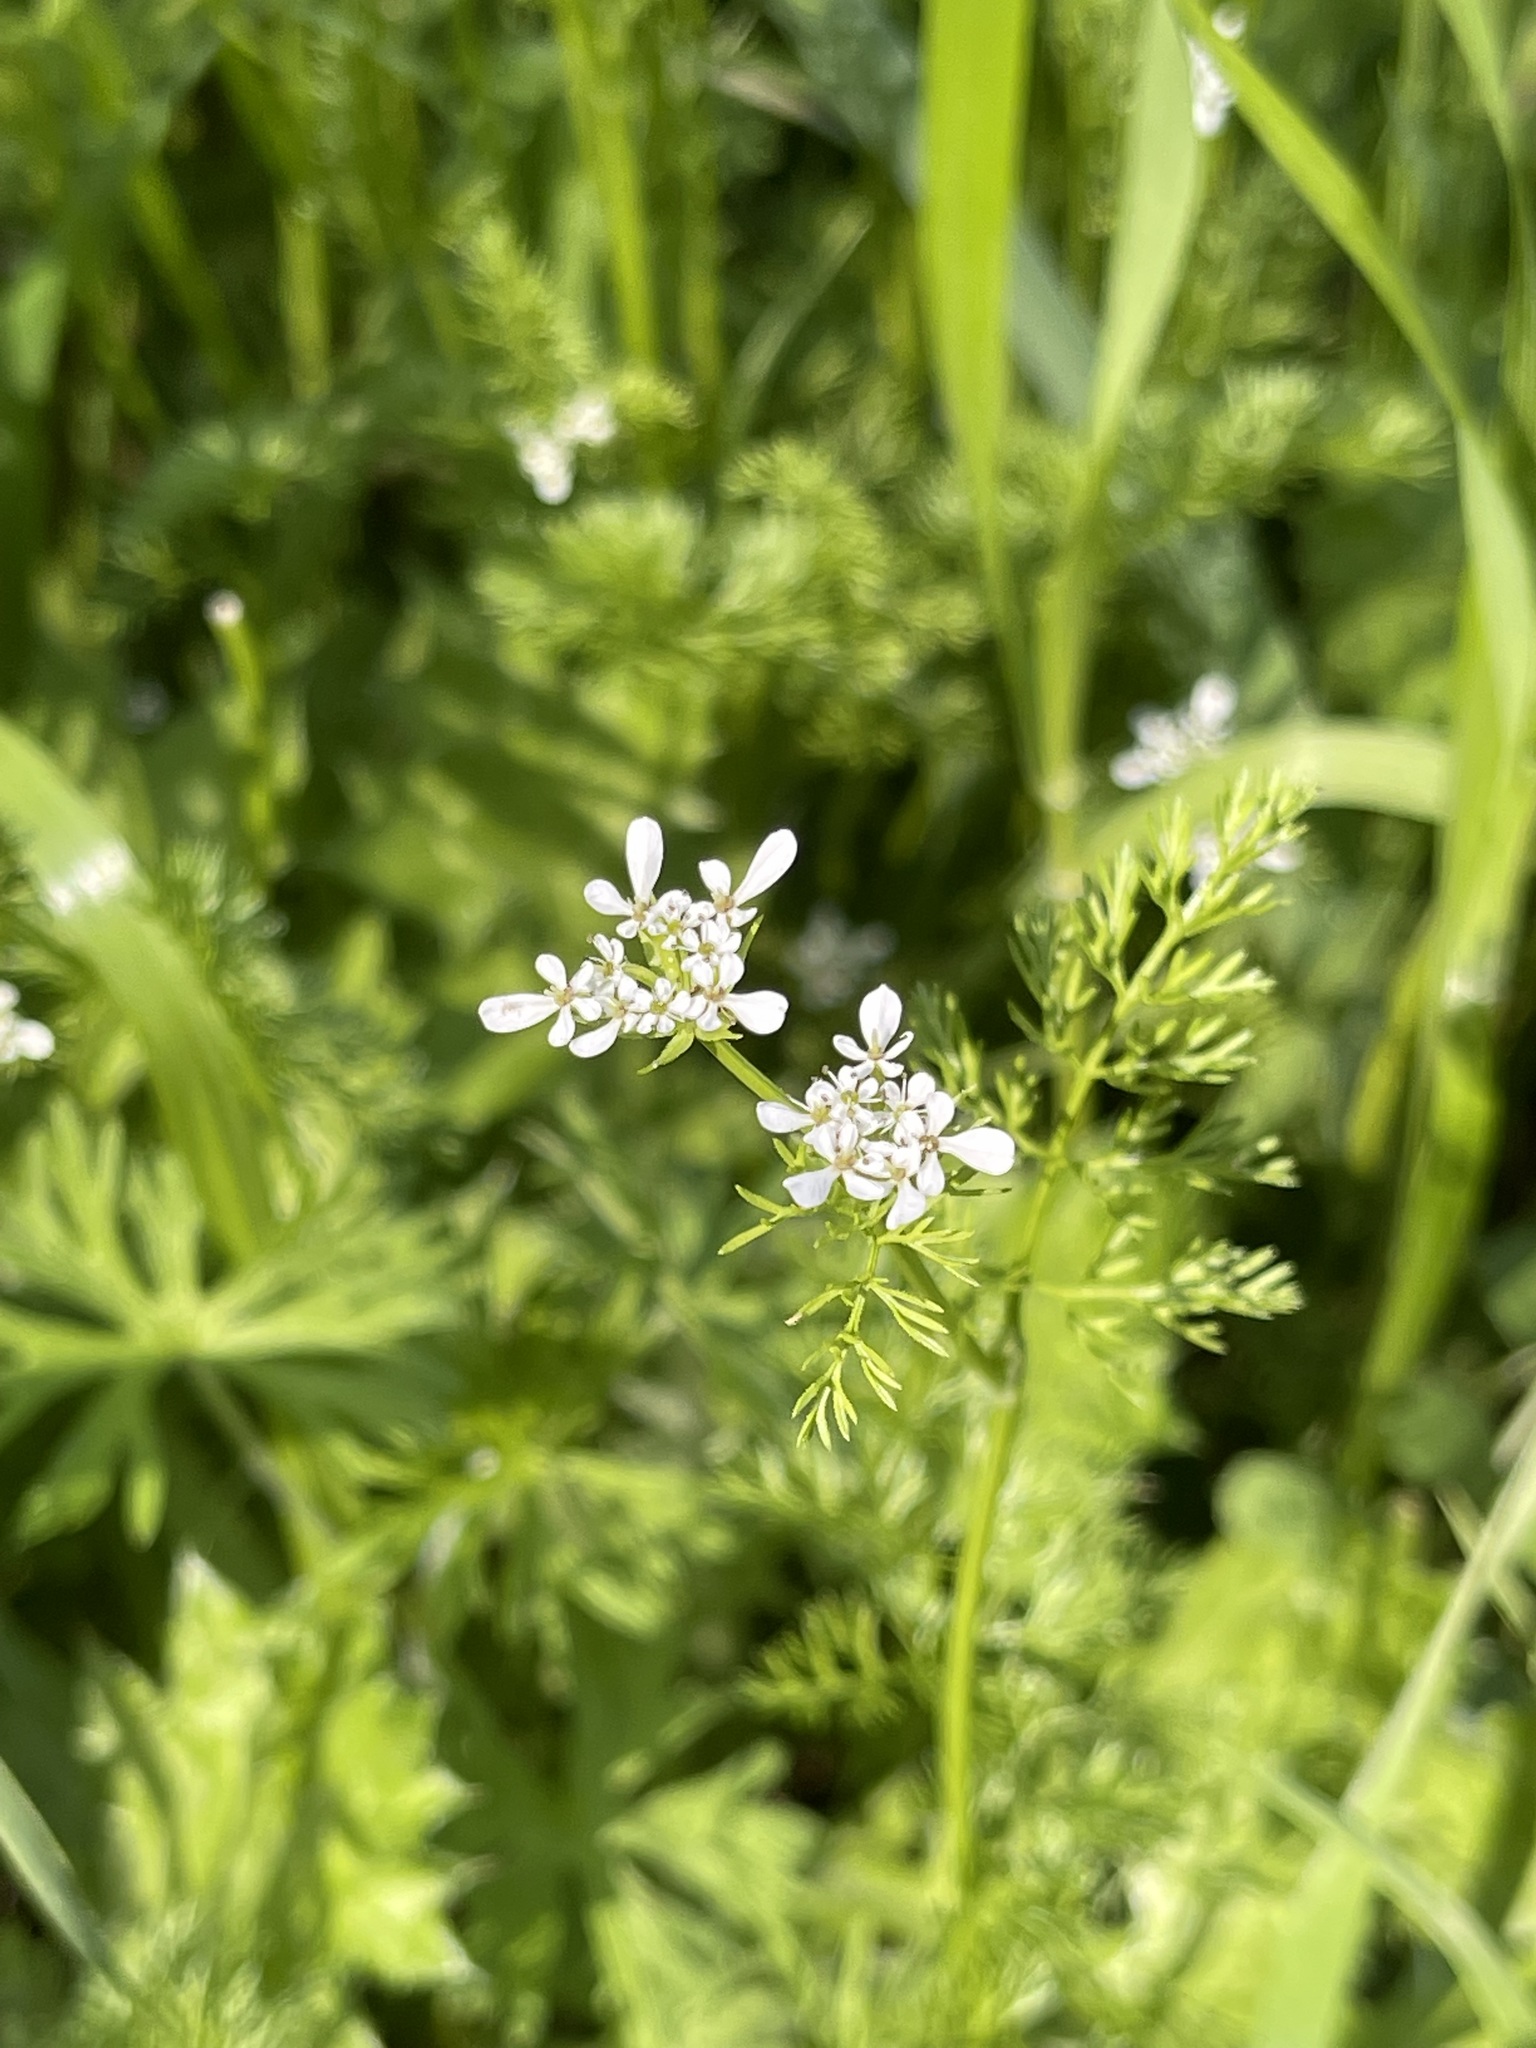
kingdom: Plantae
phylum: Tracheophyta
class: Magnoliopsida
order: Apiales
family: Apiaceae
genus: Scandix
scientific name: Scandix pecten-veneris
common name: Shepherd's-needle
